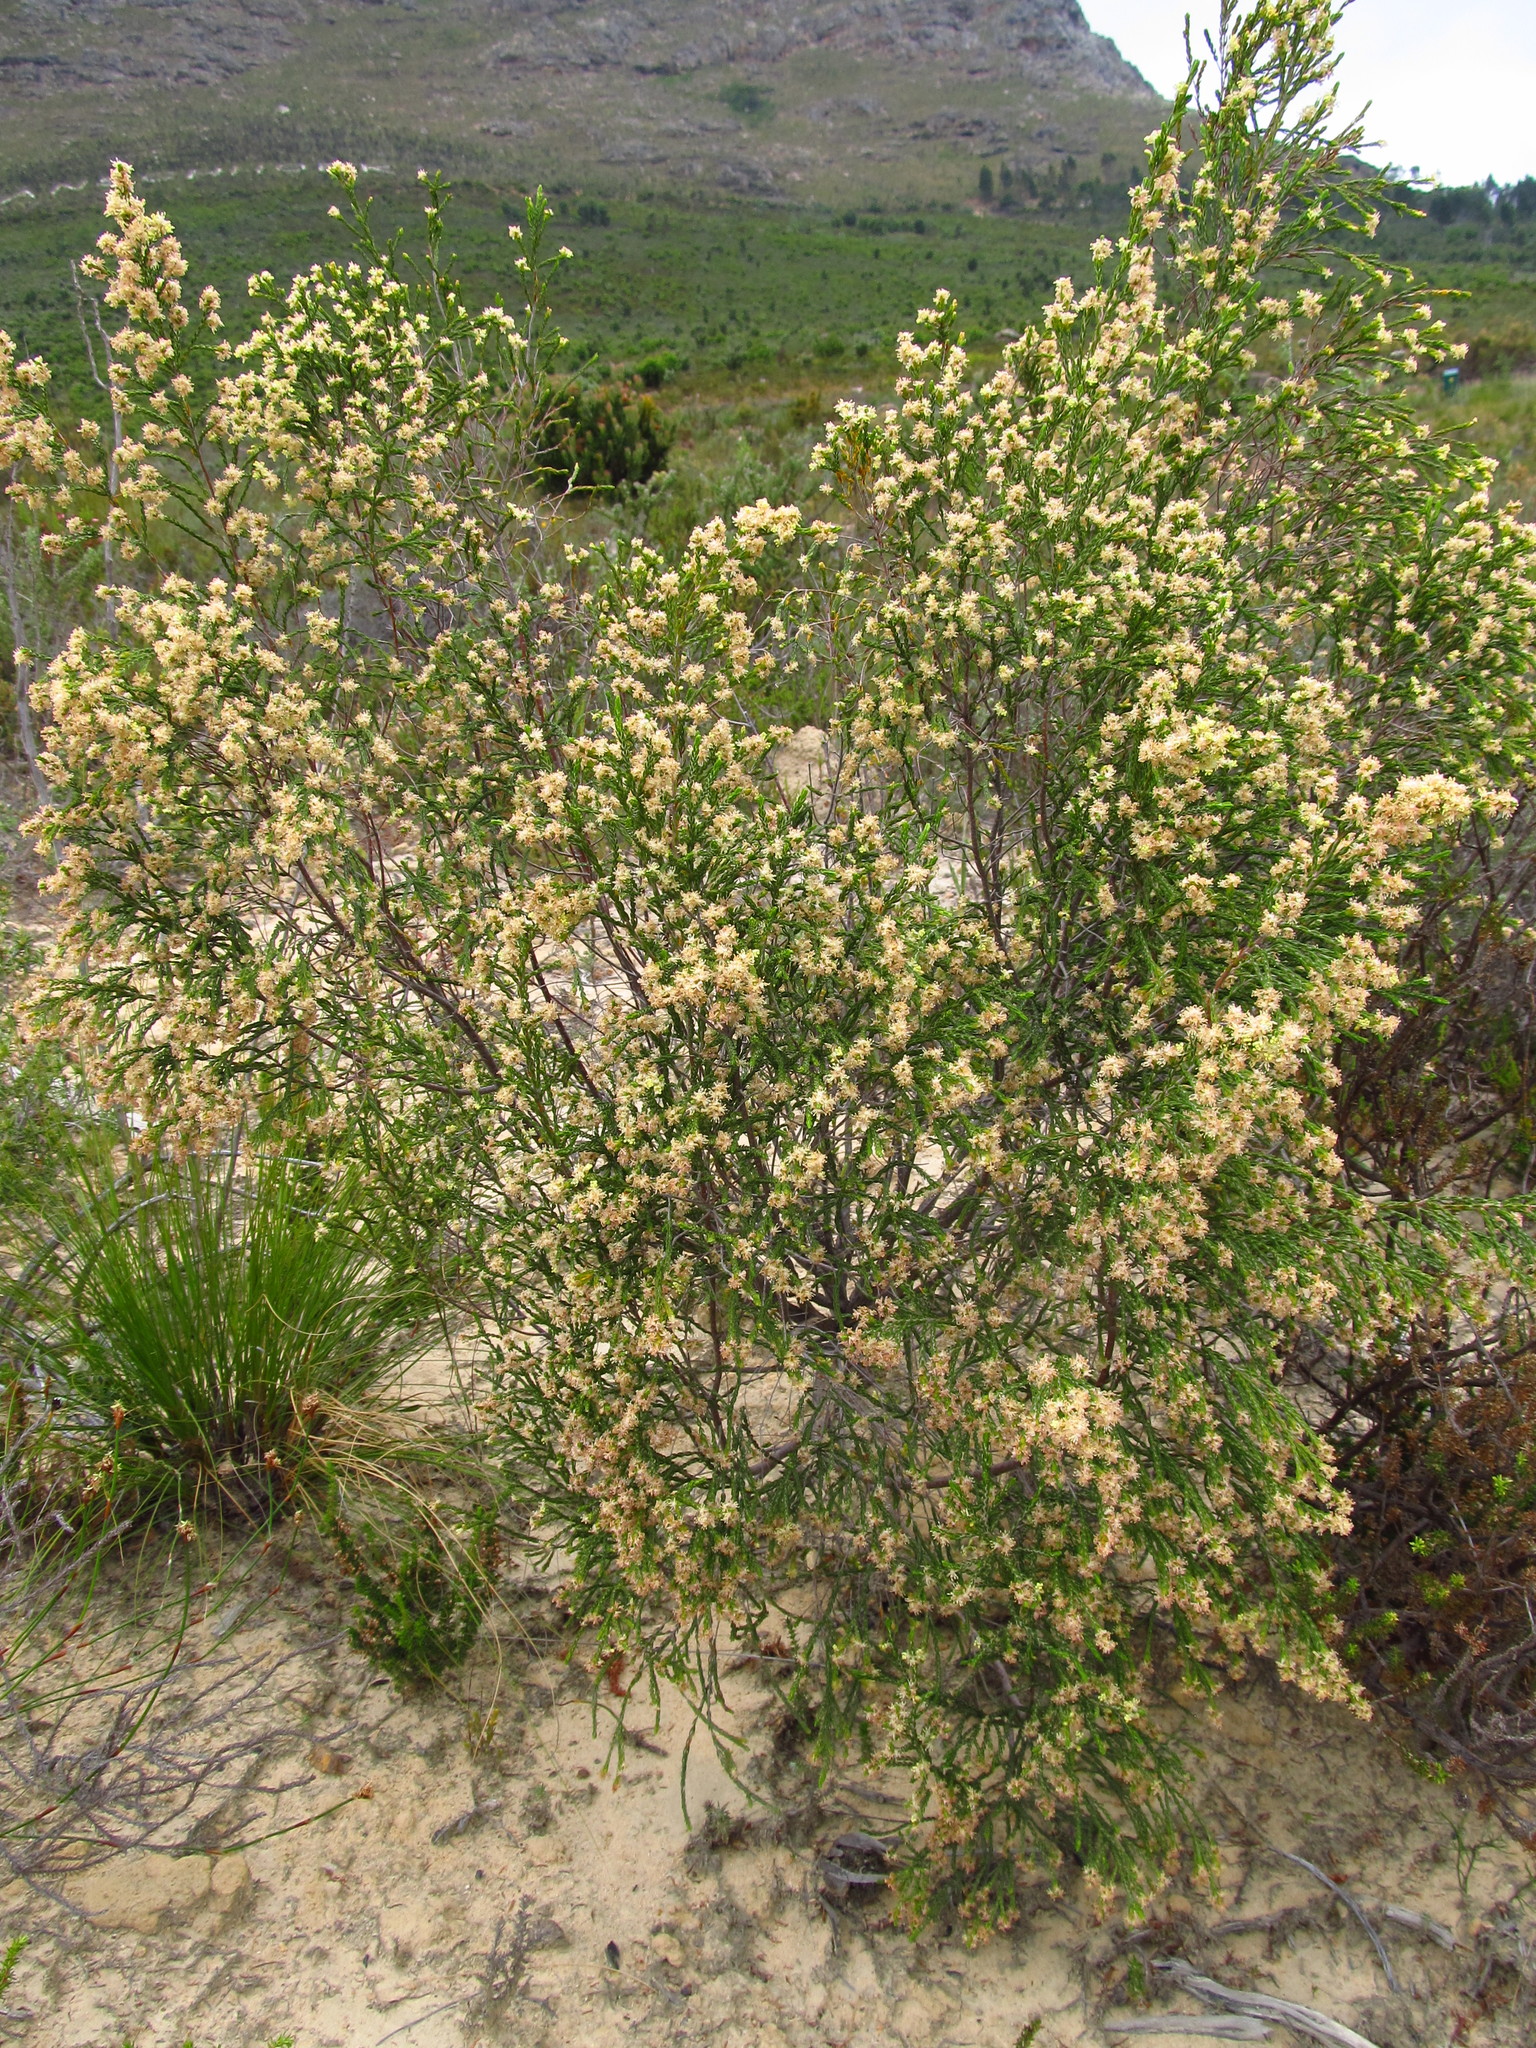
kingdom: Plantae
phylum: Tracheophyta
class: Magnoliopsida
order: Malvales
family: Thymelaeaceae
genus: Passerina
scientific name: Passerina corymbosa
